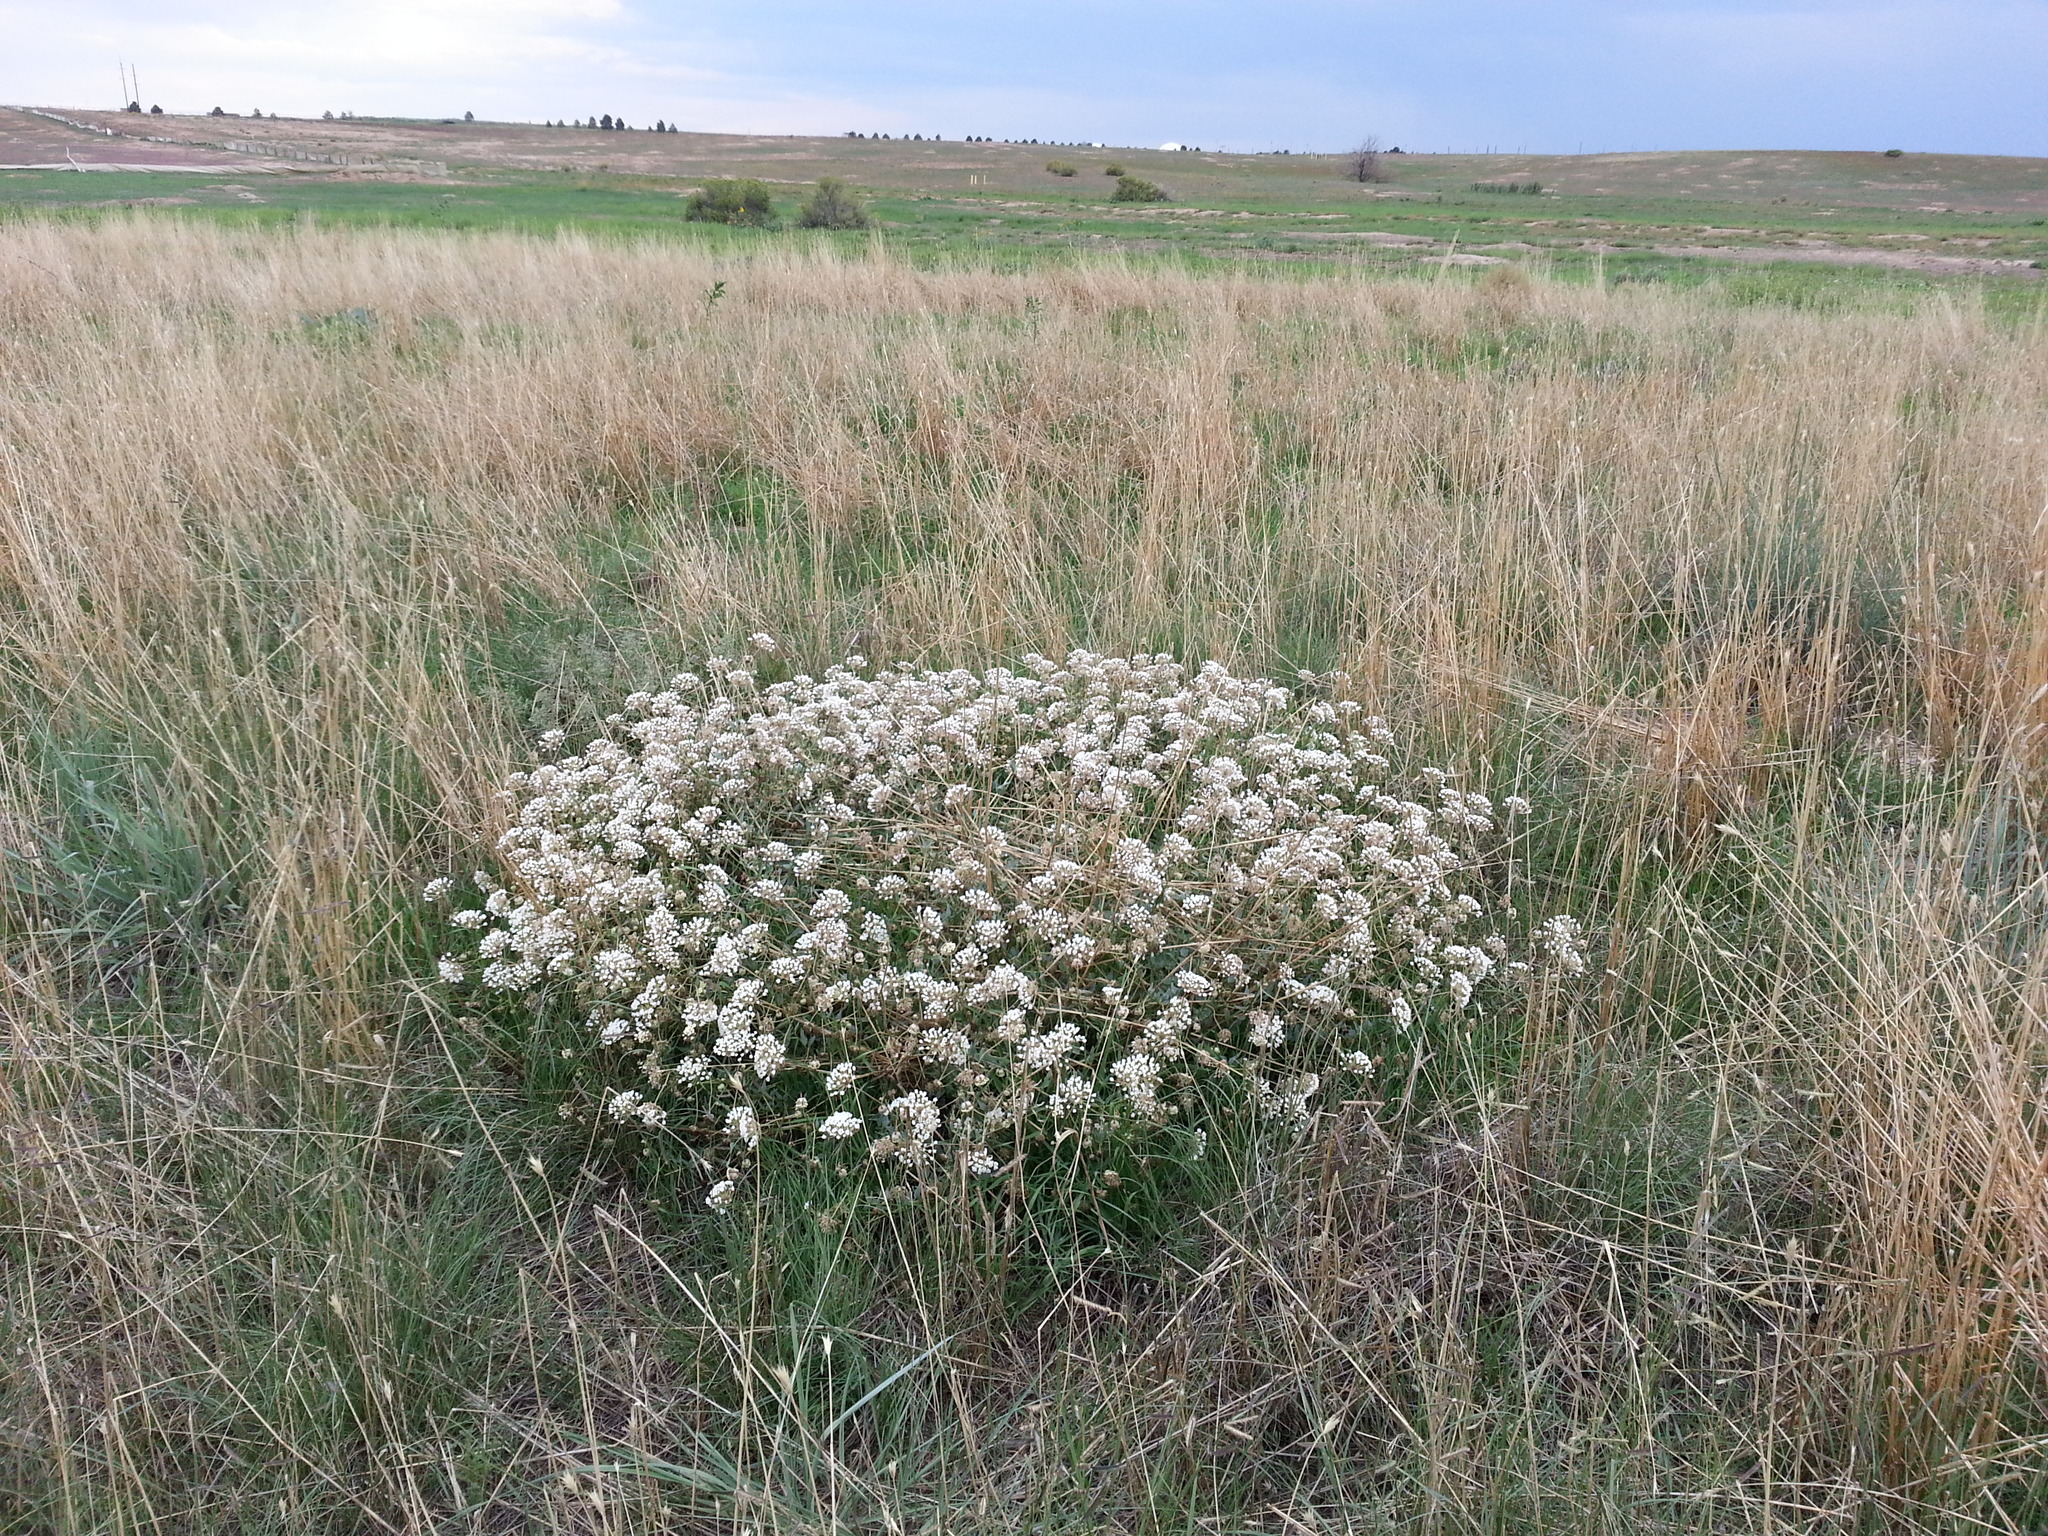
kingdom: Plantae
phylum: Tracheophyta
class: Magnoliopsida
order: Caryophyllales
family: Nyctaginaceae
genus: Abronia
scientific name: Abronia fragrans
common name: Fragrant sand-verbena
